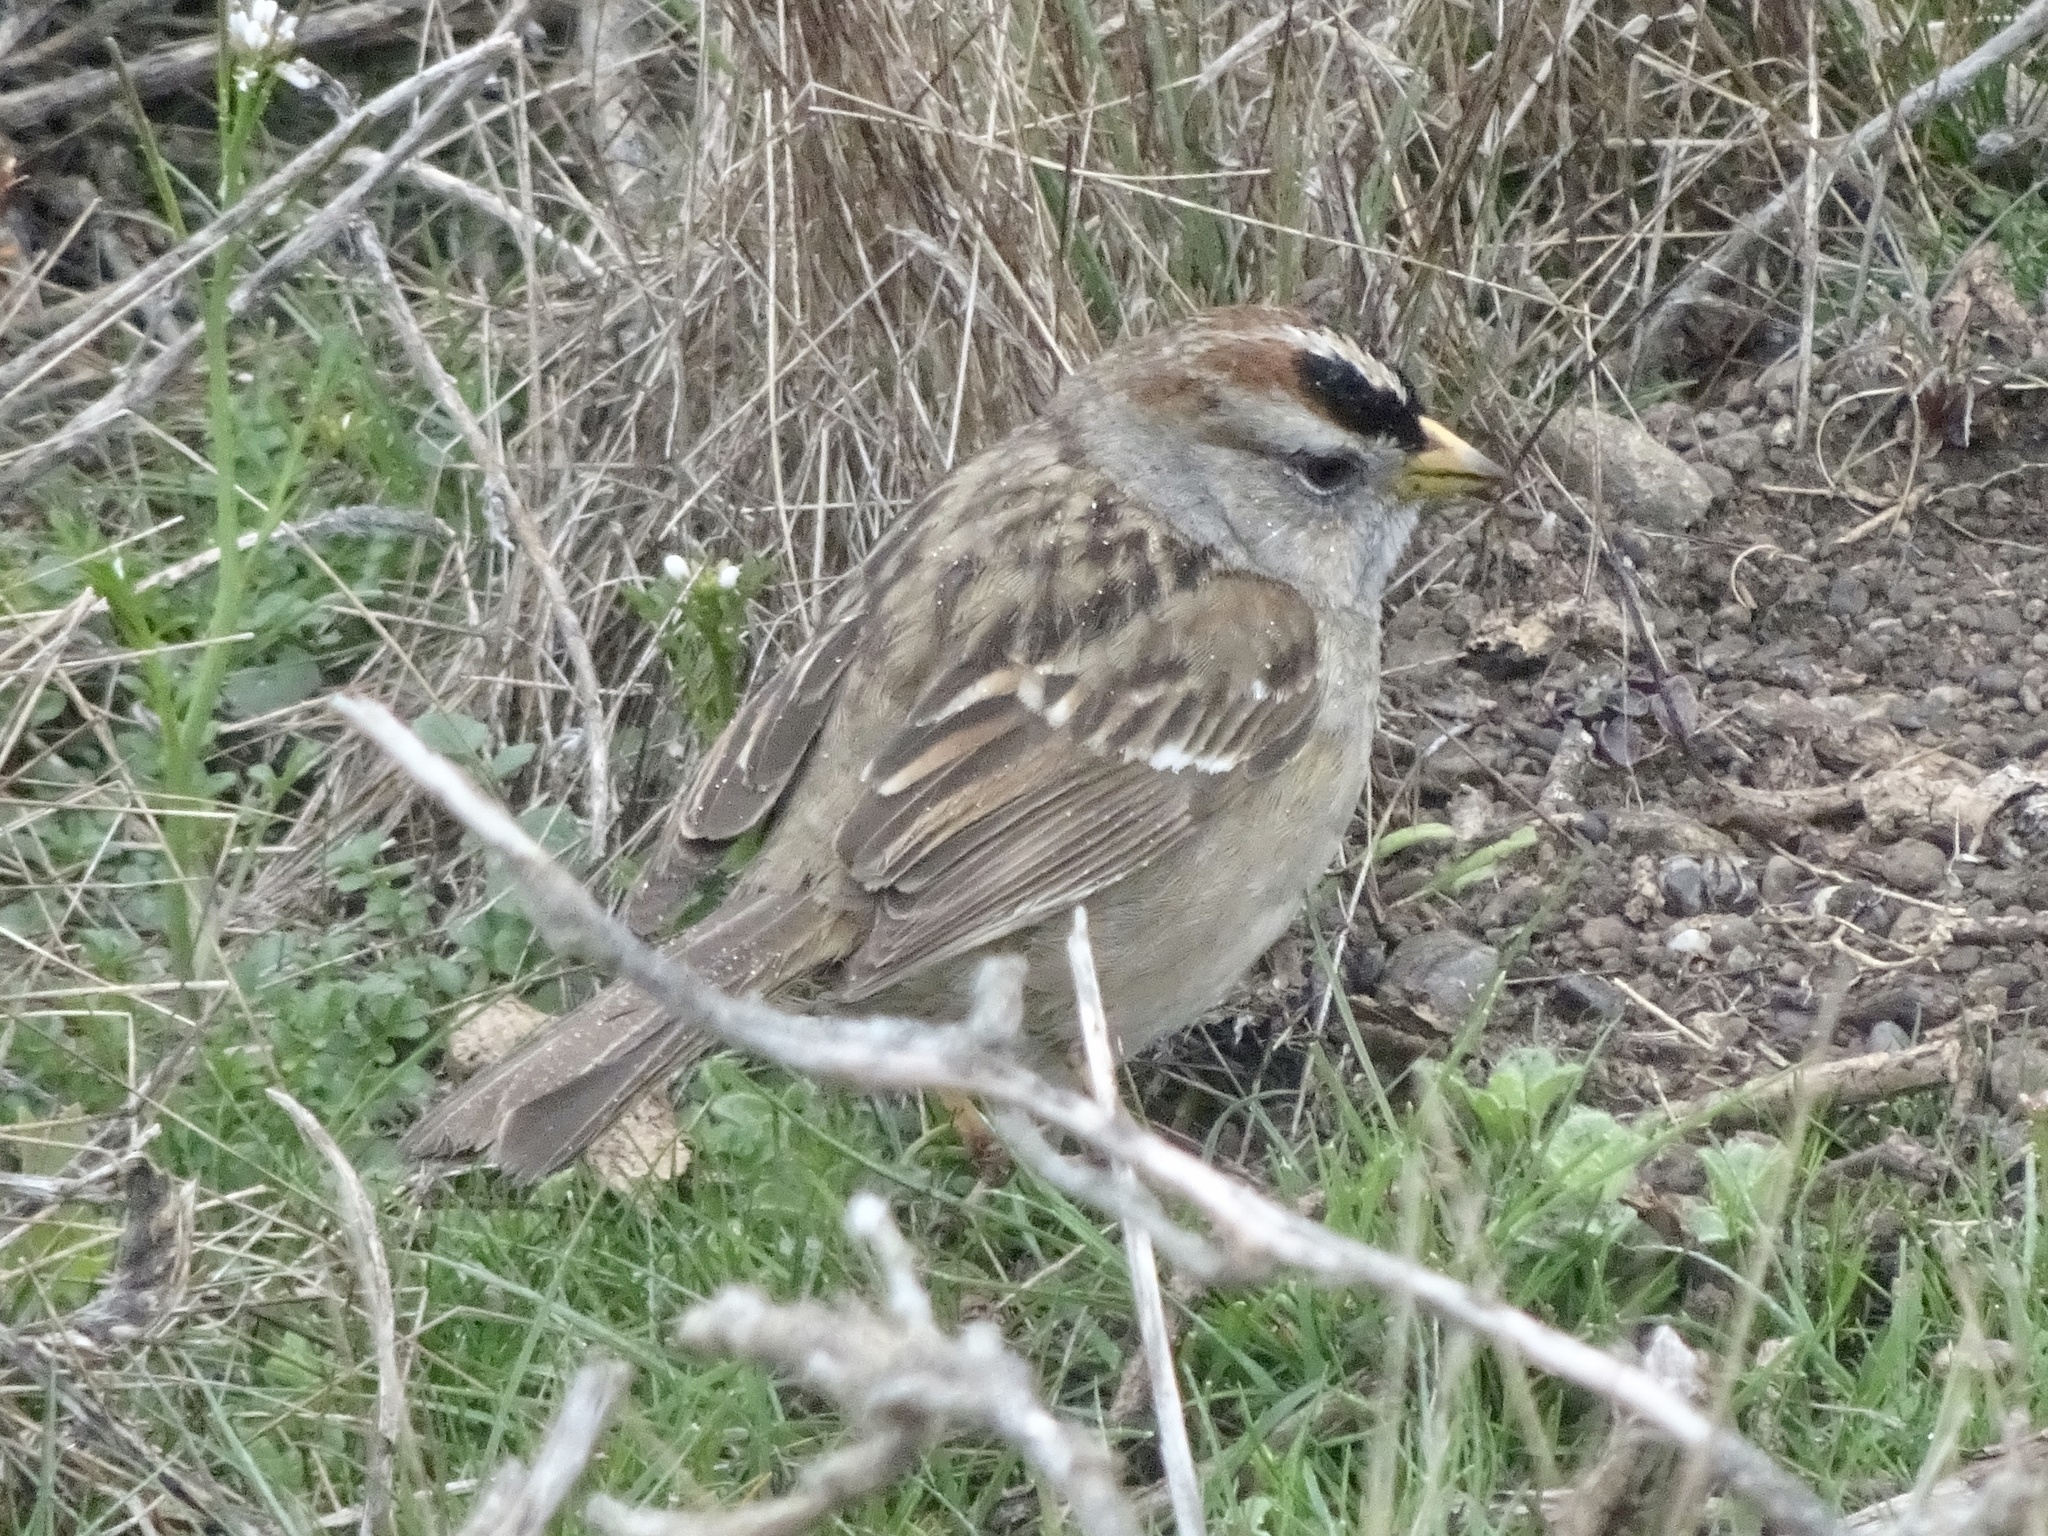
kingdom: Animalia
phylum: Chordata
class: Aves
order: Passeriformes
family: Passerellidae
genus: Zonotrichia
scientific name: Zonotrichia leucophrys
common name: White-crowned sparrow
